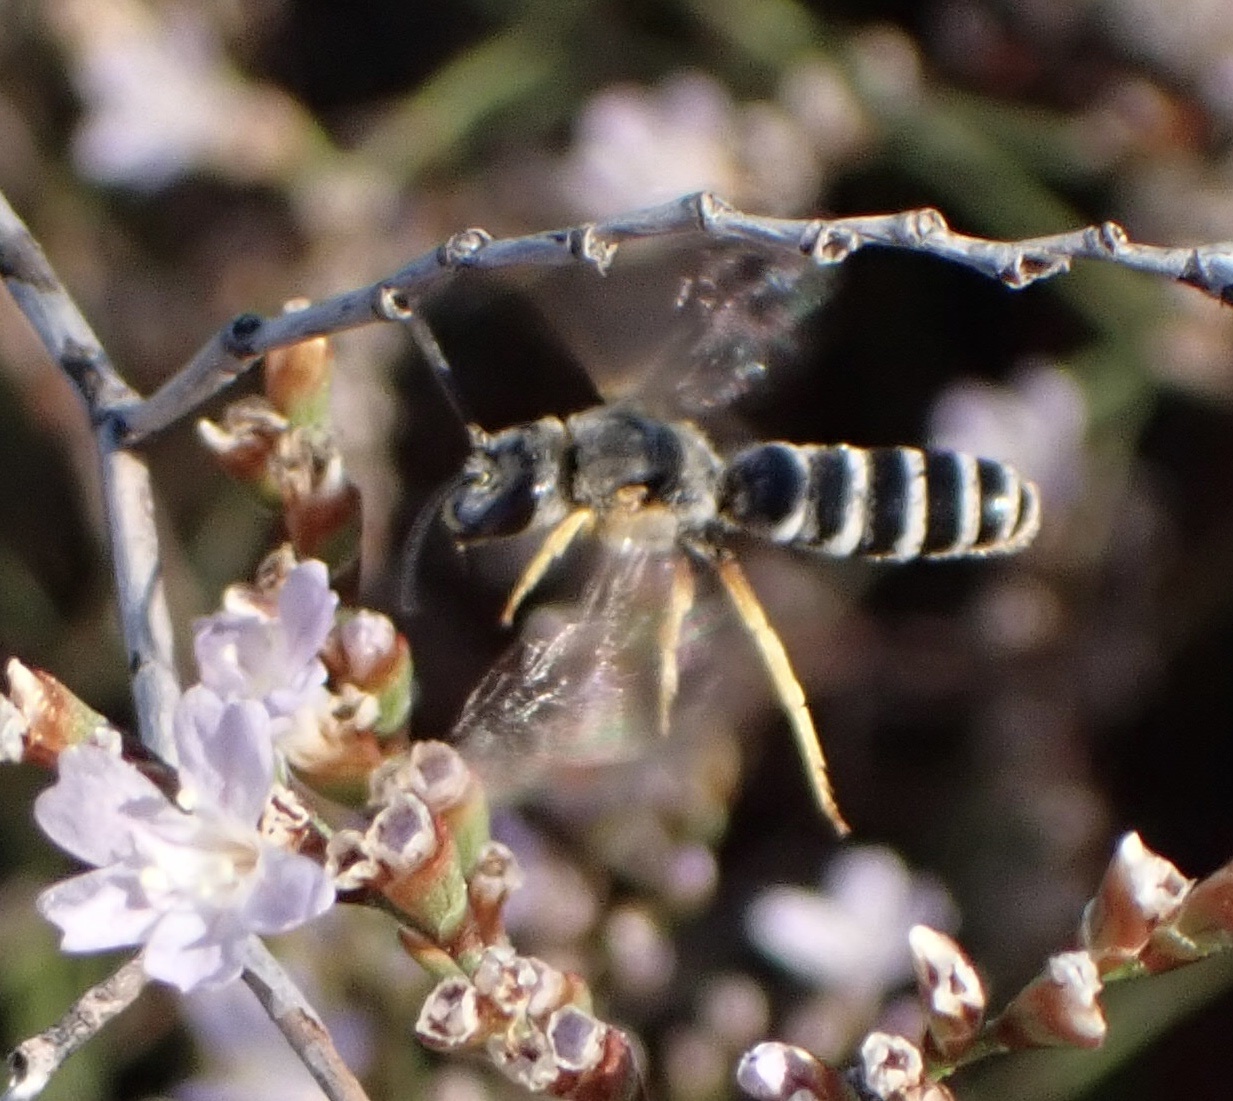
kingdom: Animalia
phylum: Arthropoda
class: Insecta
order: Hymenoptera
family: Halictidae
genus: Halictus
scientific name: Halictus scabiosae
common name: Great banded furrow bee
